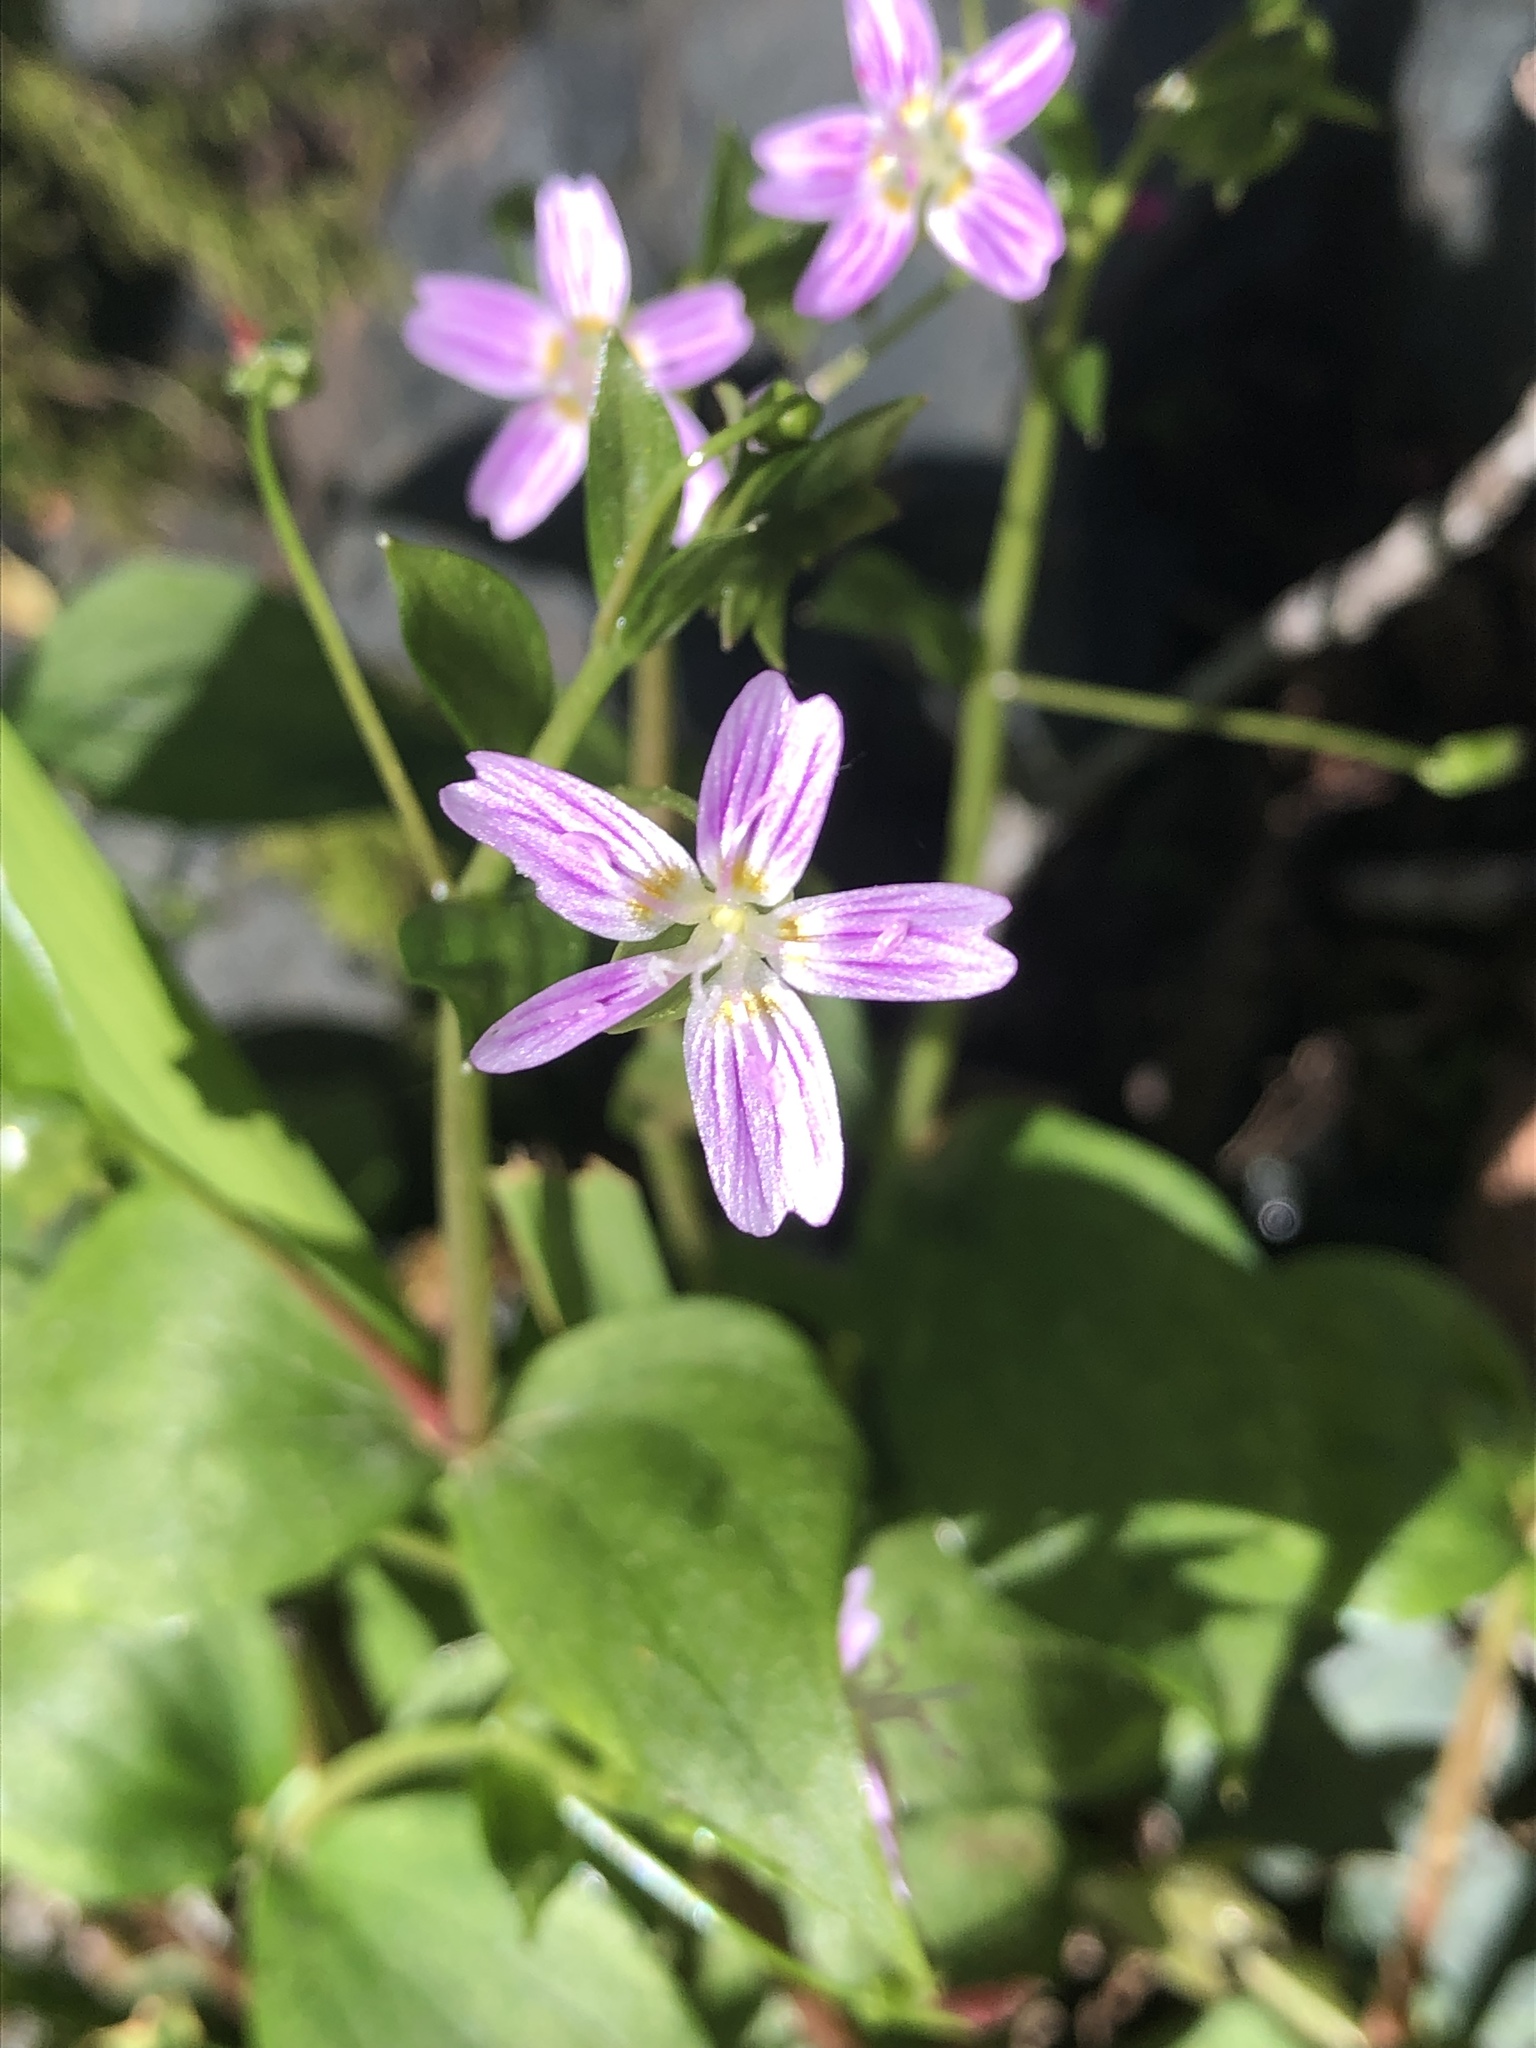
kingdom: Plantae
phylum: Tracheophyta
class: Magnoliopsida
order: Caryophyllales
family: Montiaceae
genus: Claytonia
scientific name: Claytonia sibirica
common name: Pink purslane
